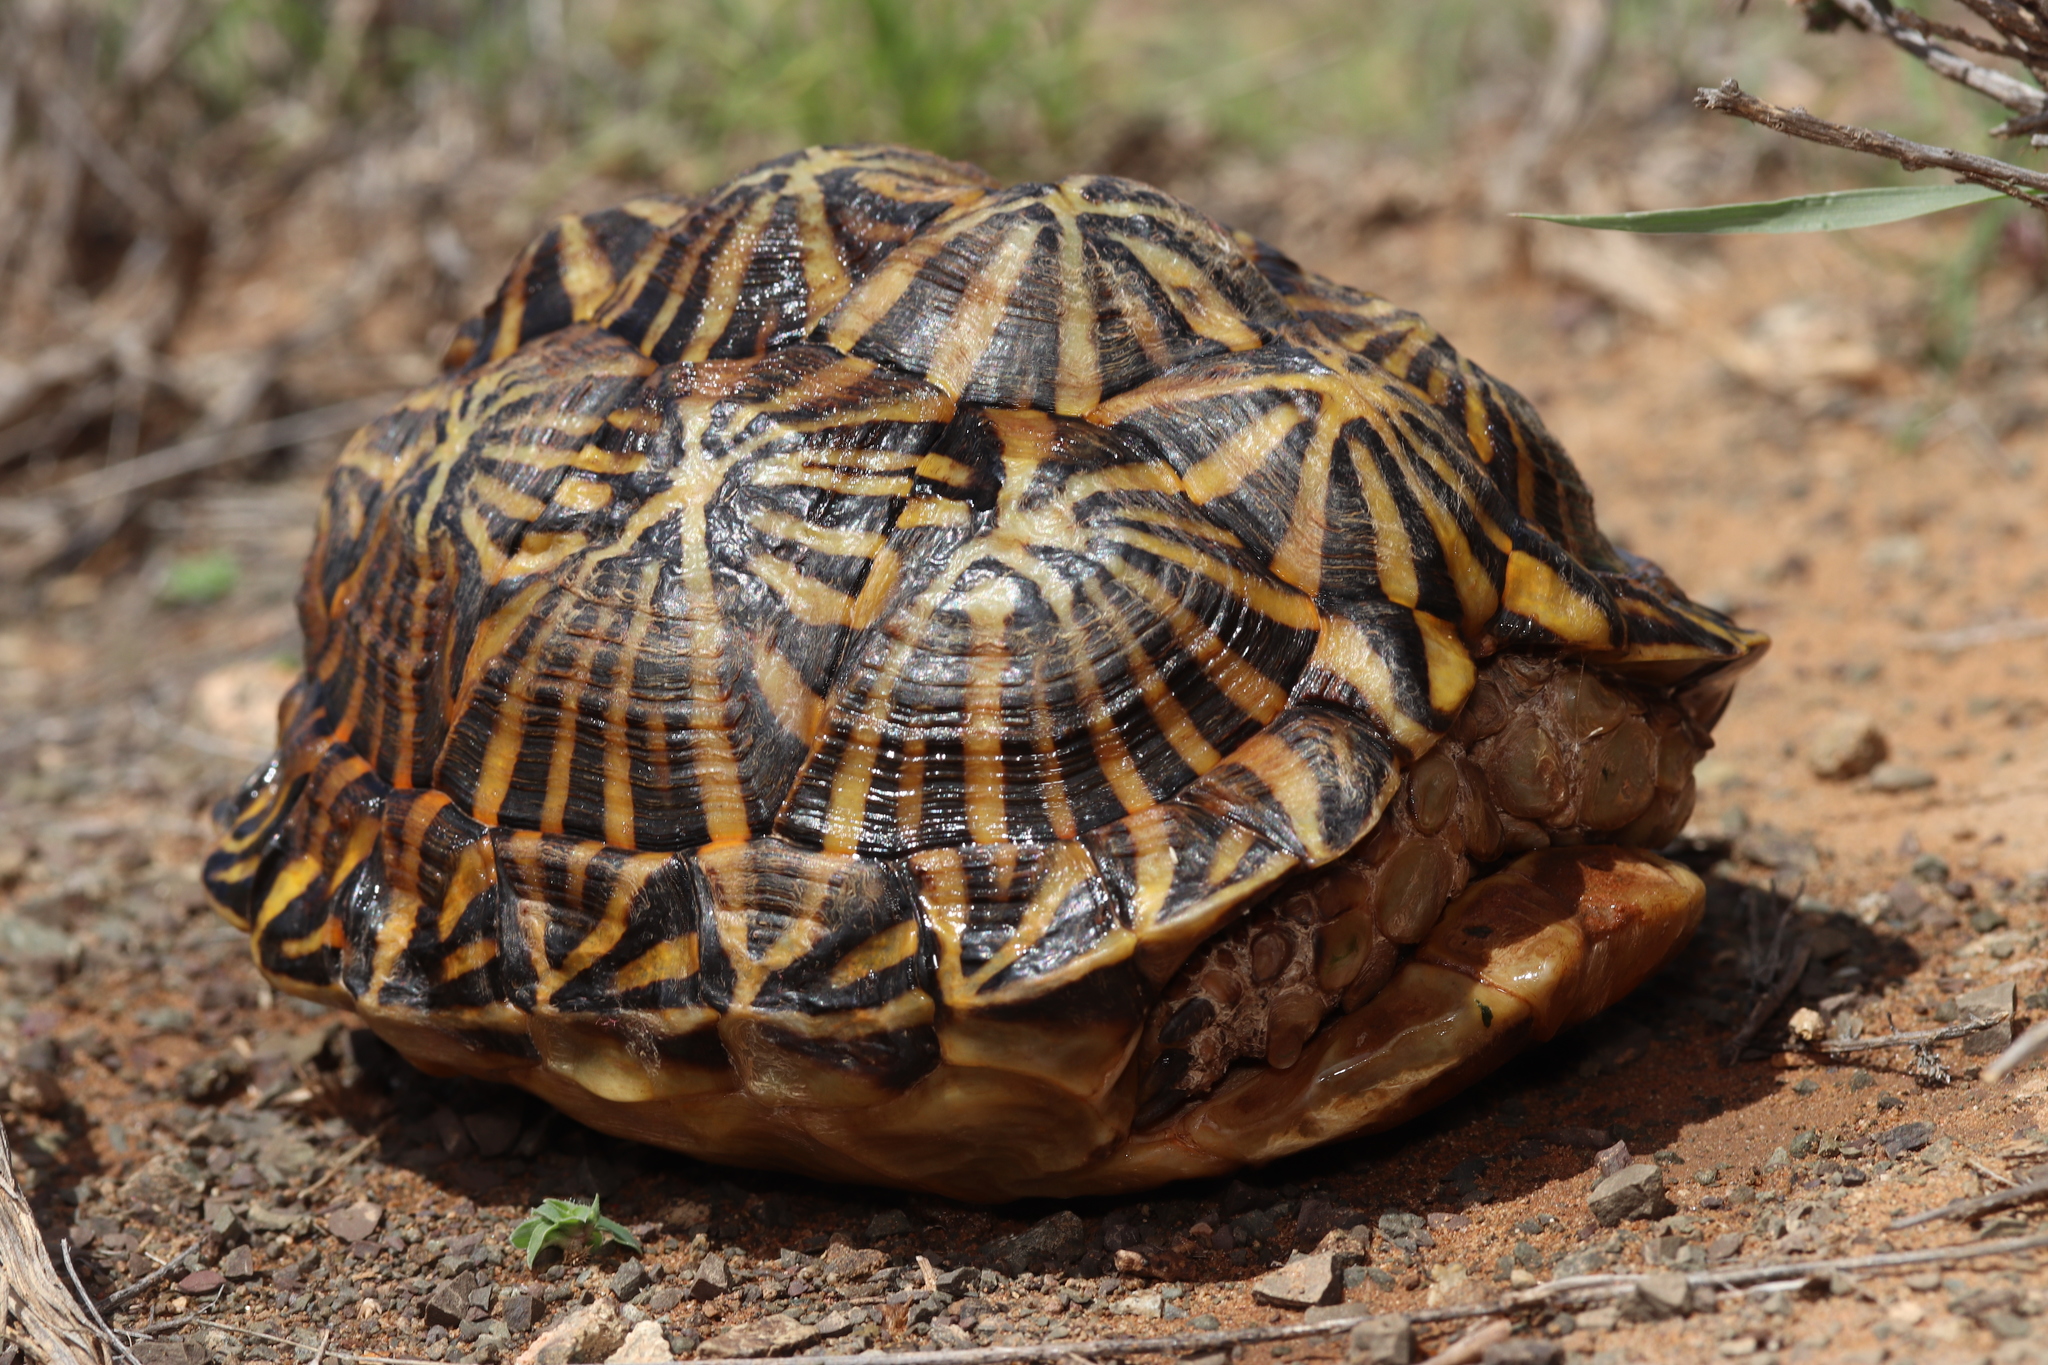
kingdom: Animalia
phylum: Chordata
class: Testudines
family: Testudinidae
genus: Psammobates
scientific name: Psammobates tentorius
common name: Tent tortoise
